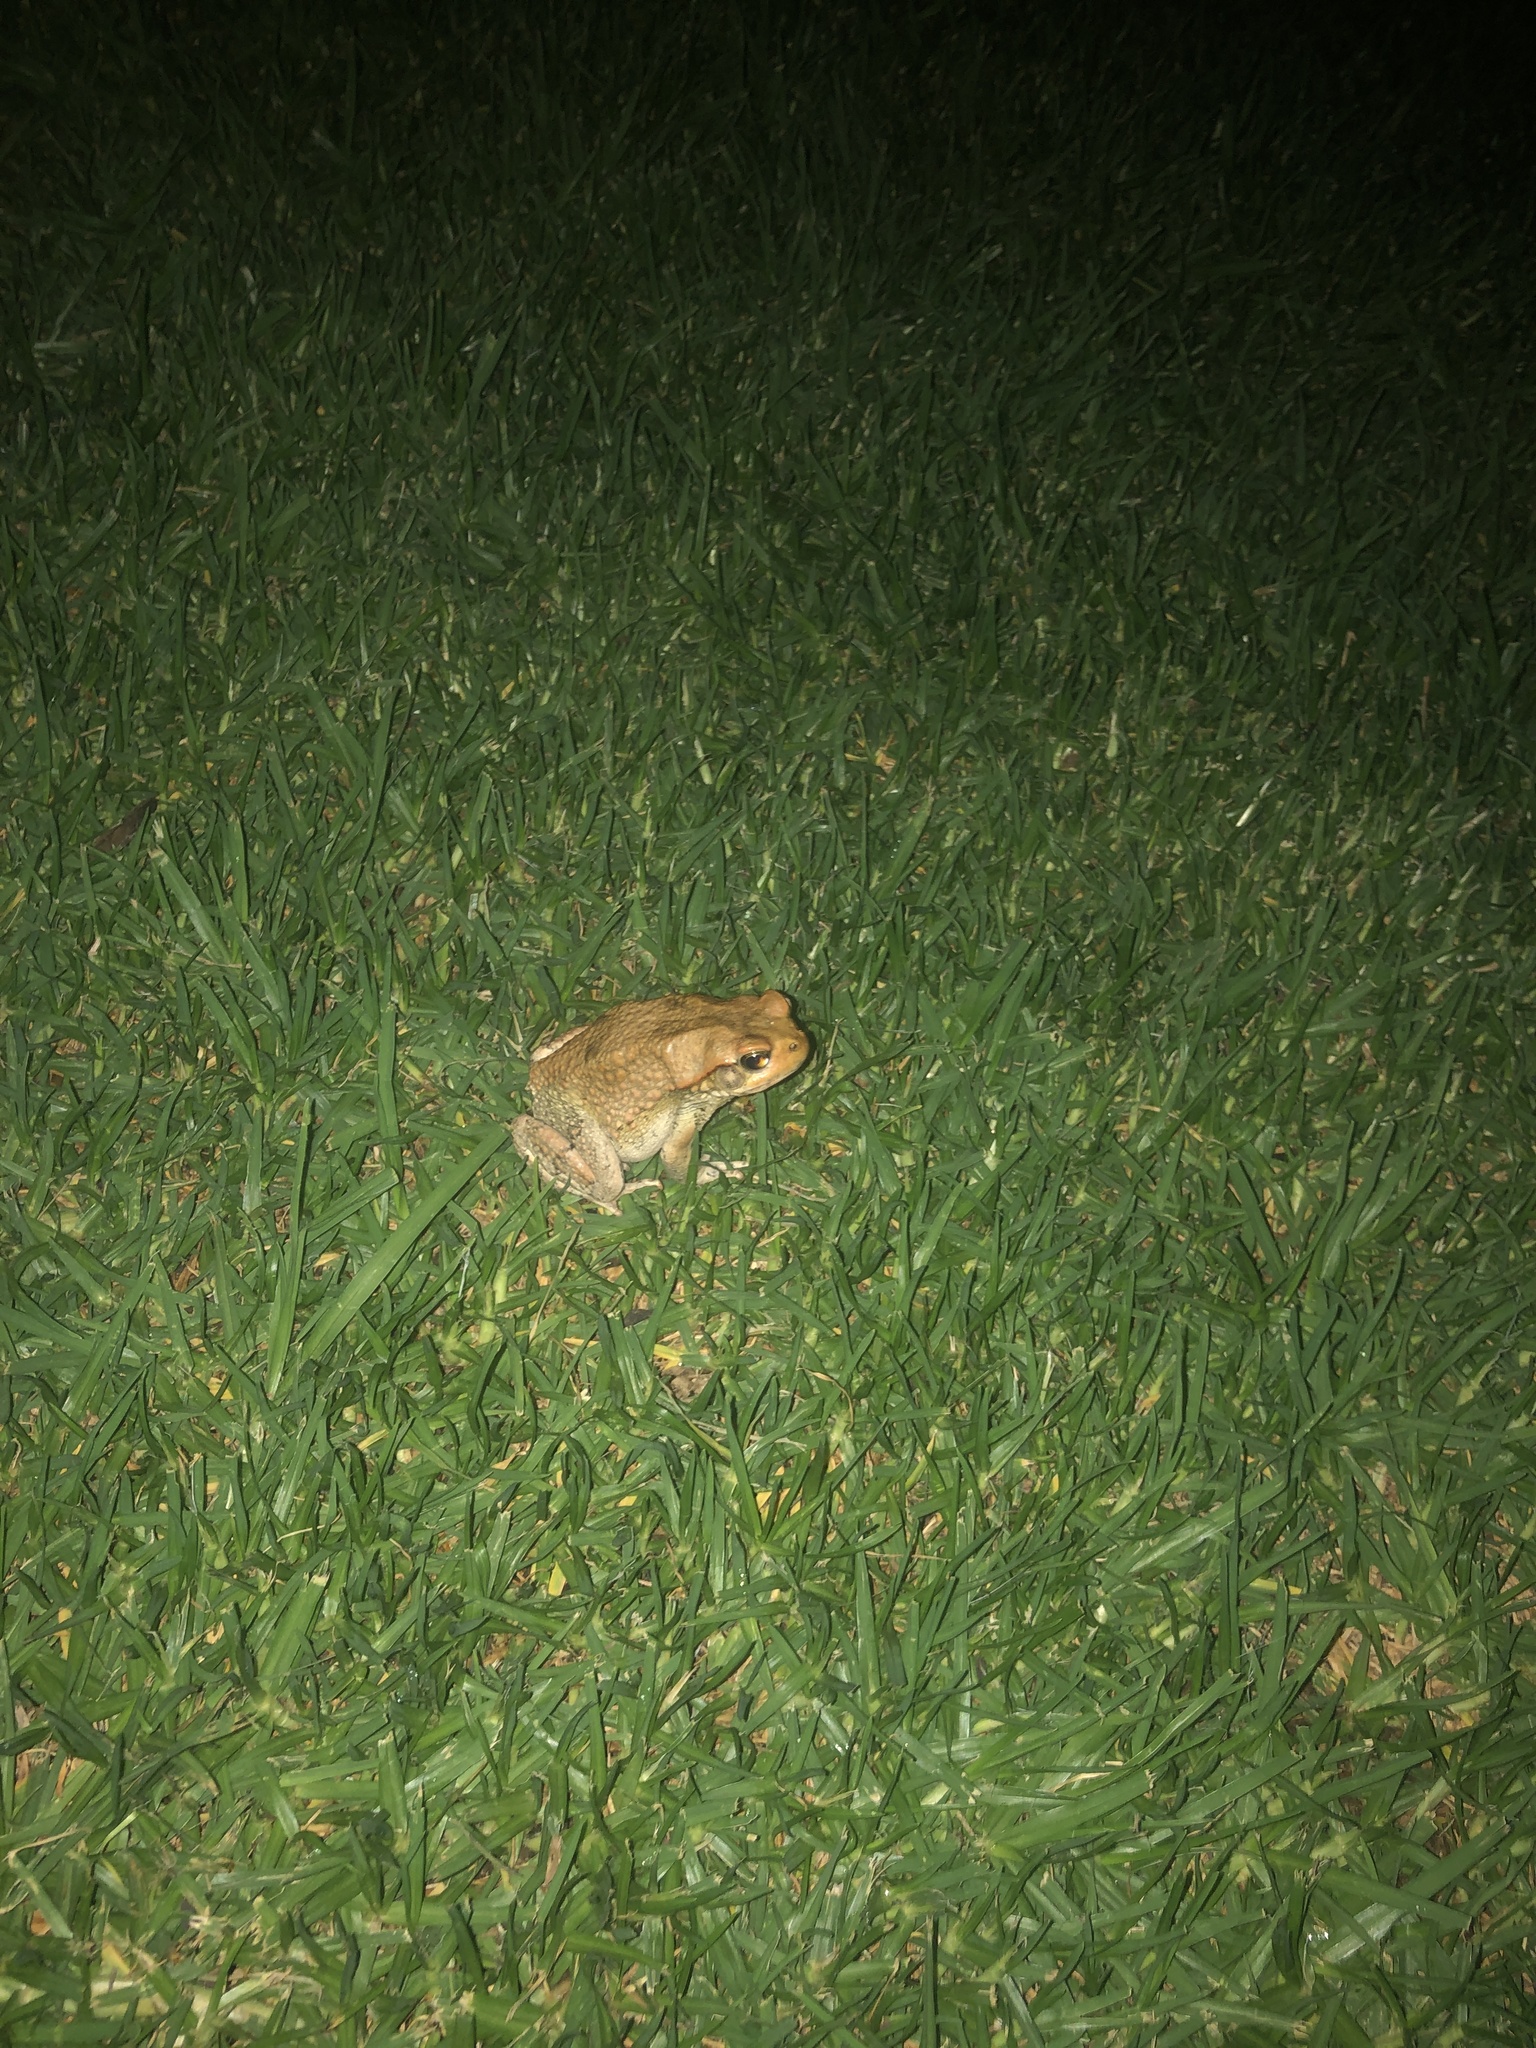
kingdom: Animalia
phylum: Chordata
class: Amphibia
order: Anura
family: Bufonidae
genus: Schismaderma
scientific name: Schismaderma carens
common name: African split-skin toad
